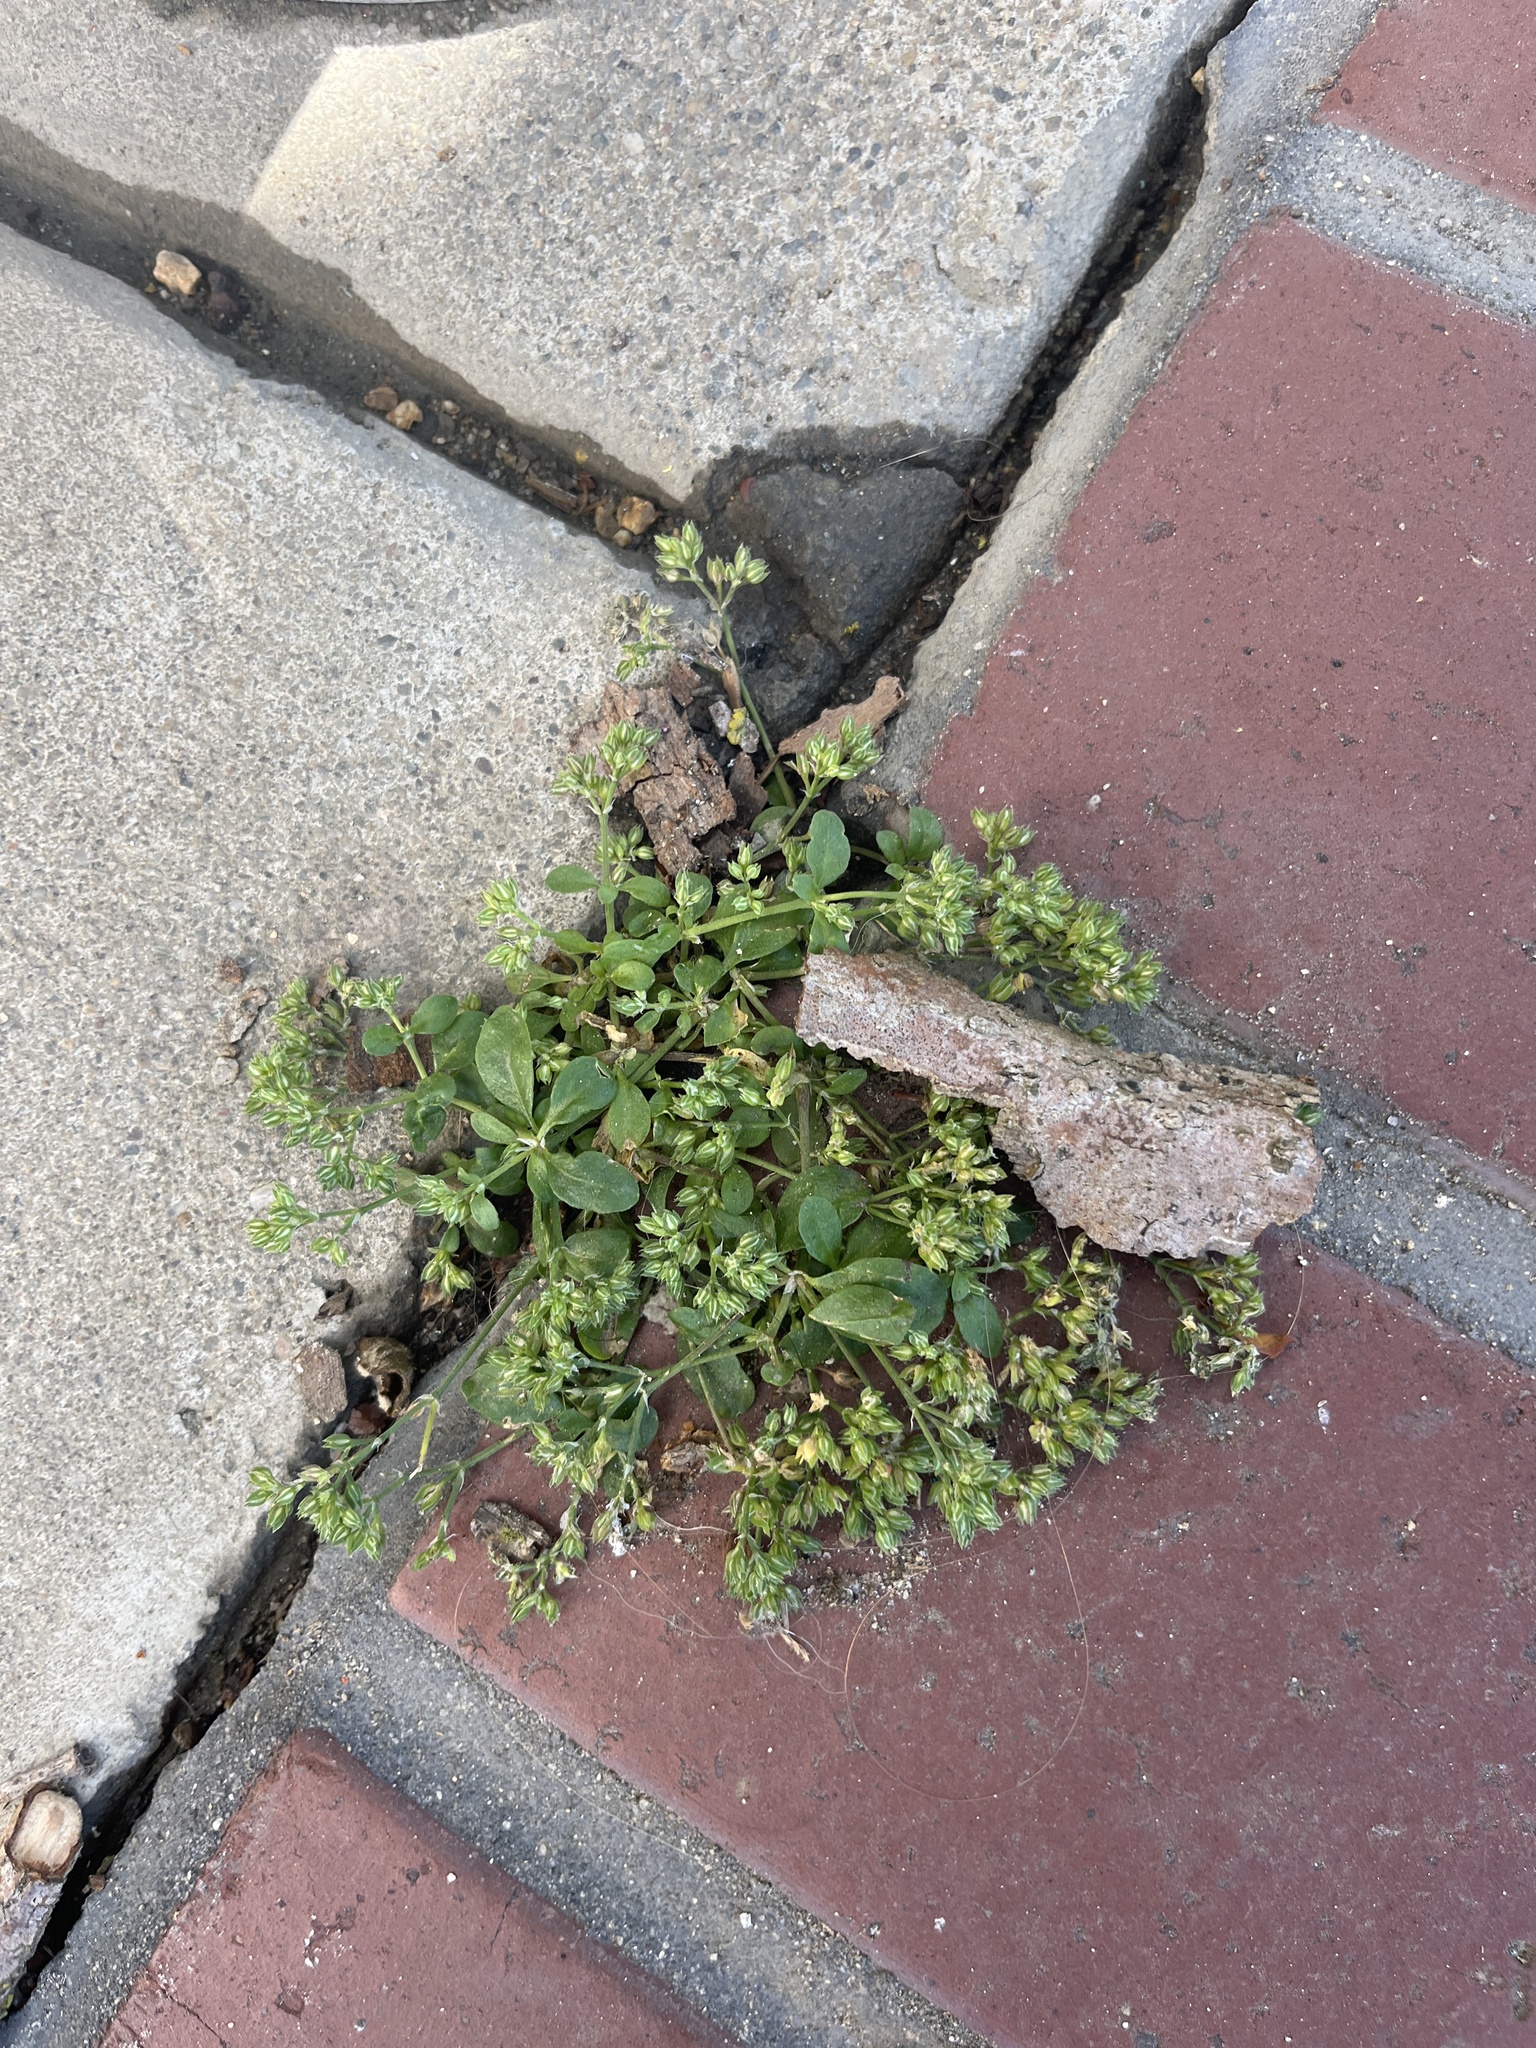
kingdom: Plantae
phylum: Tracheophyta
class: Magnoliopsida
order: Caryophyllales
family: Caryophyllaceae
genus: Polycarpon
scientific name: Polycarpon tetraphyllum
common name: Four-leaved all-seed
